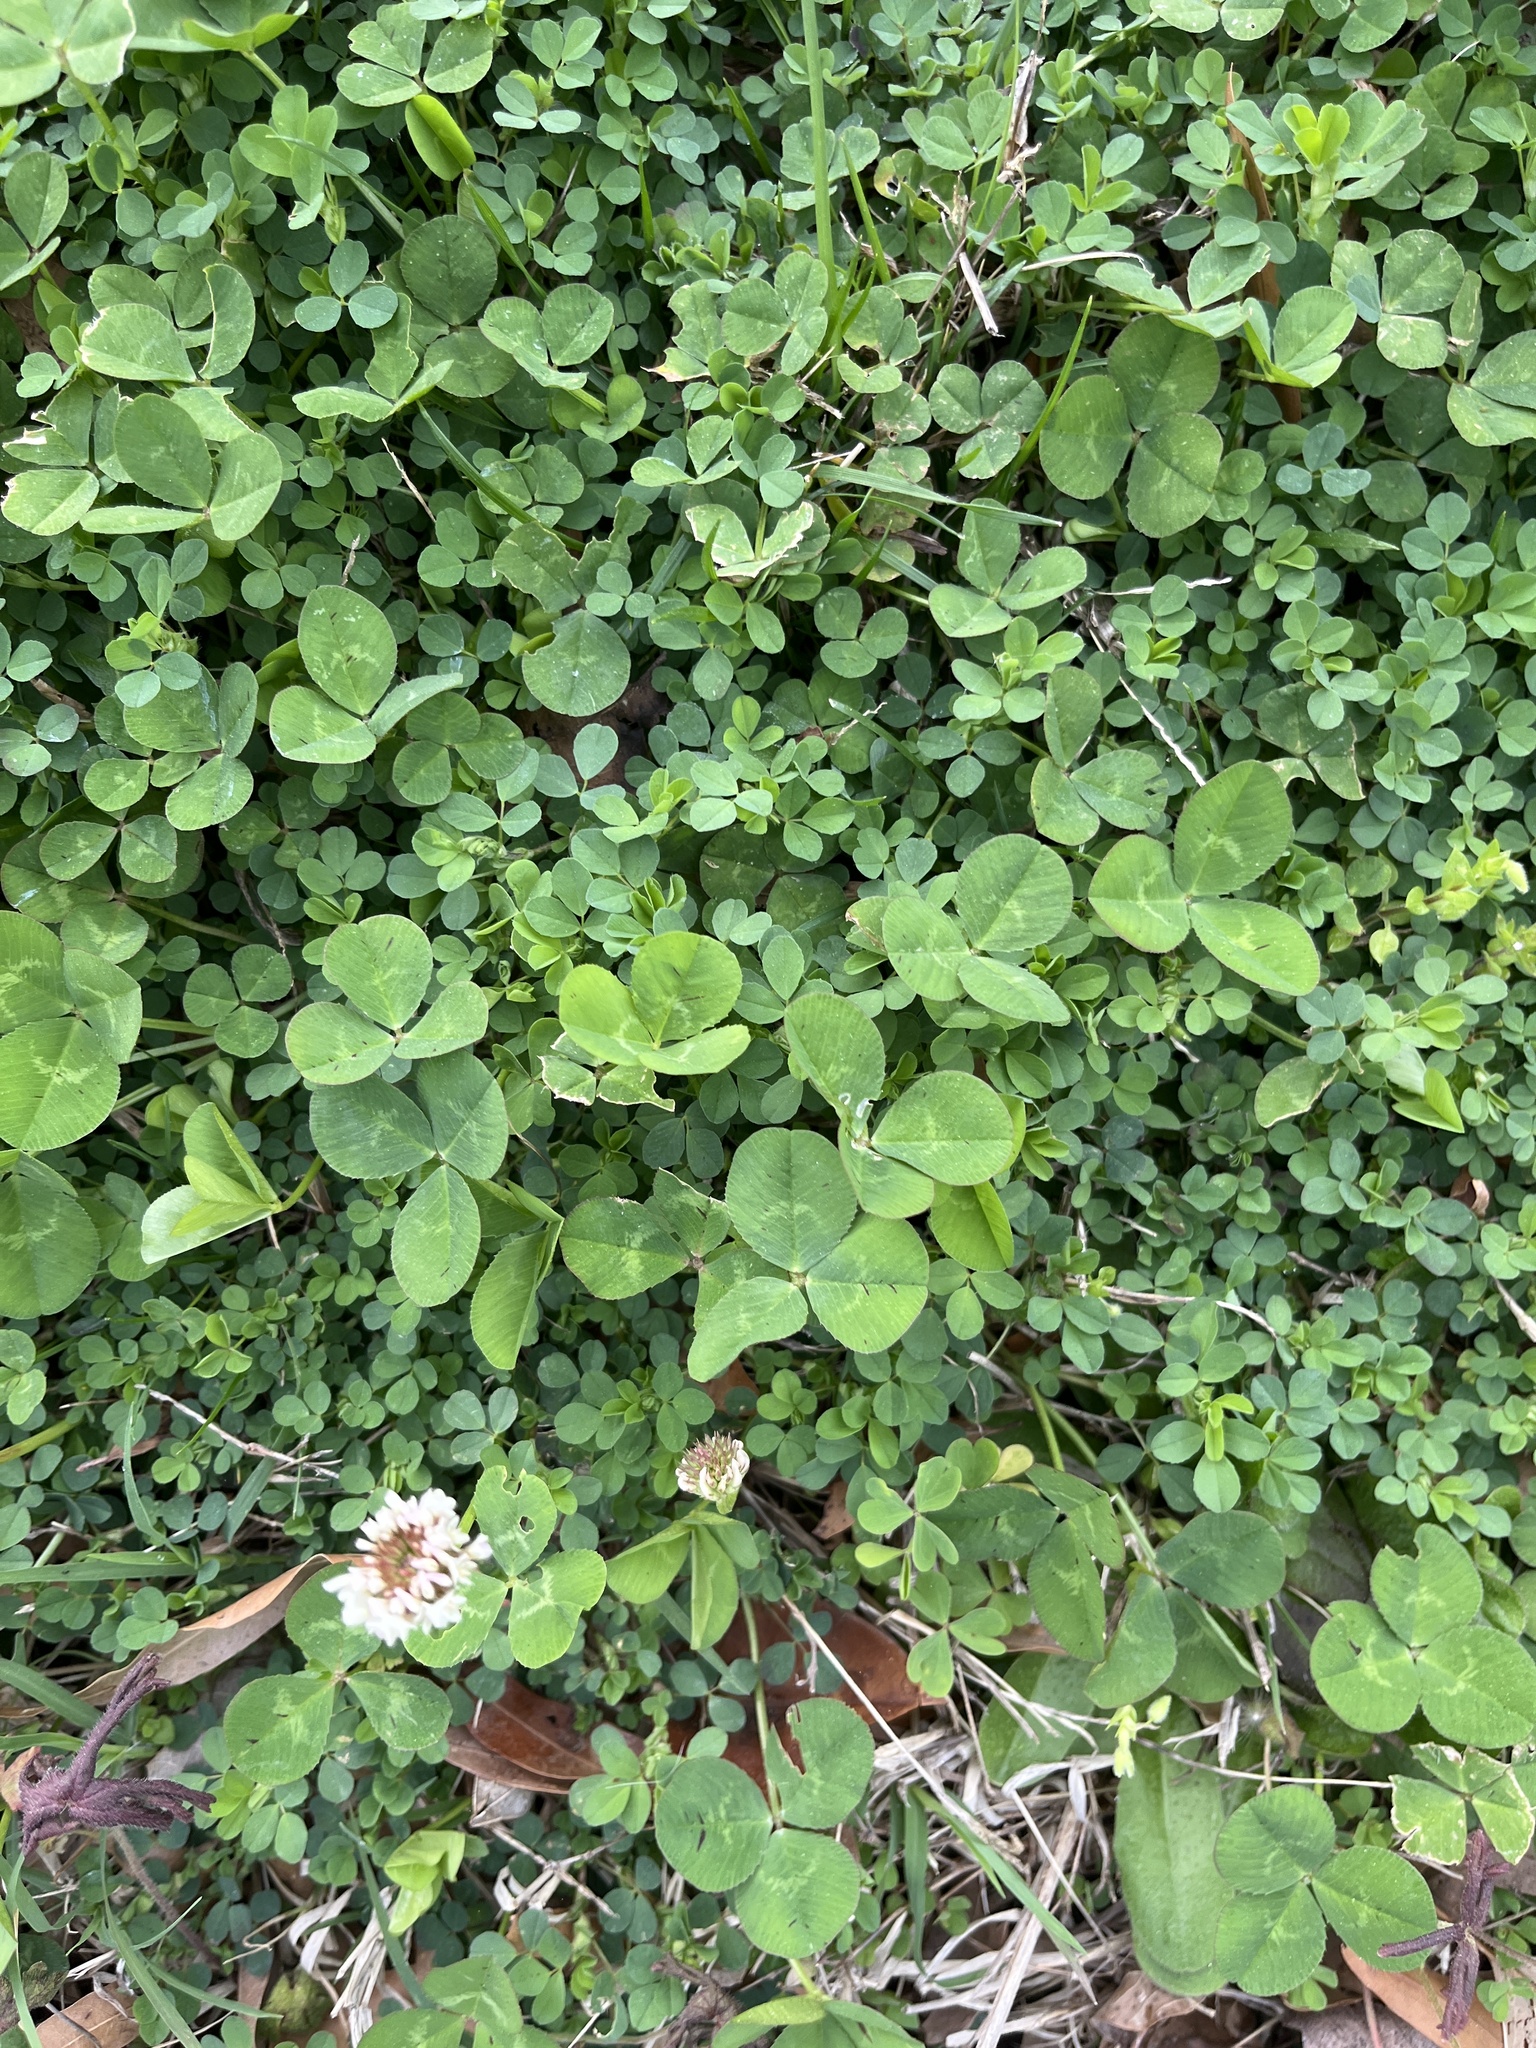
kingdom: Plantae
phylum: Tracheophyta
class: Magnoliopsida
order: Fabales
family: Fabaceae
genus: Trifolium
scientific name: Trifolium repens
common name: White clover
